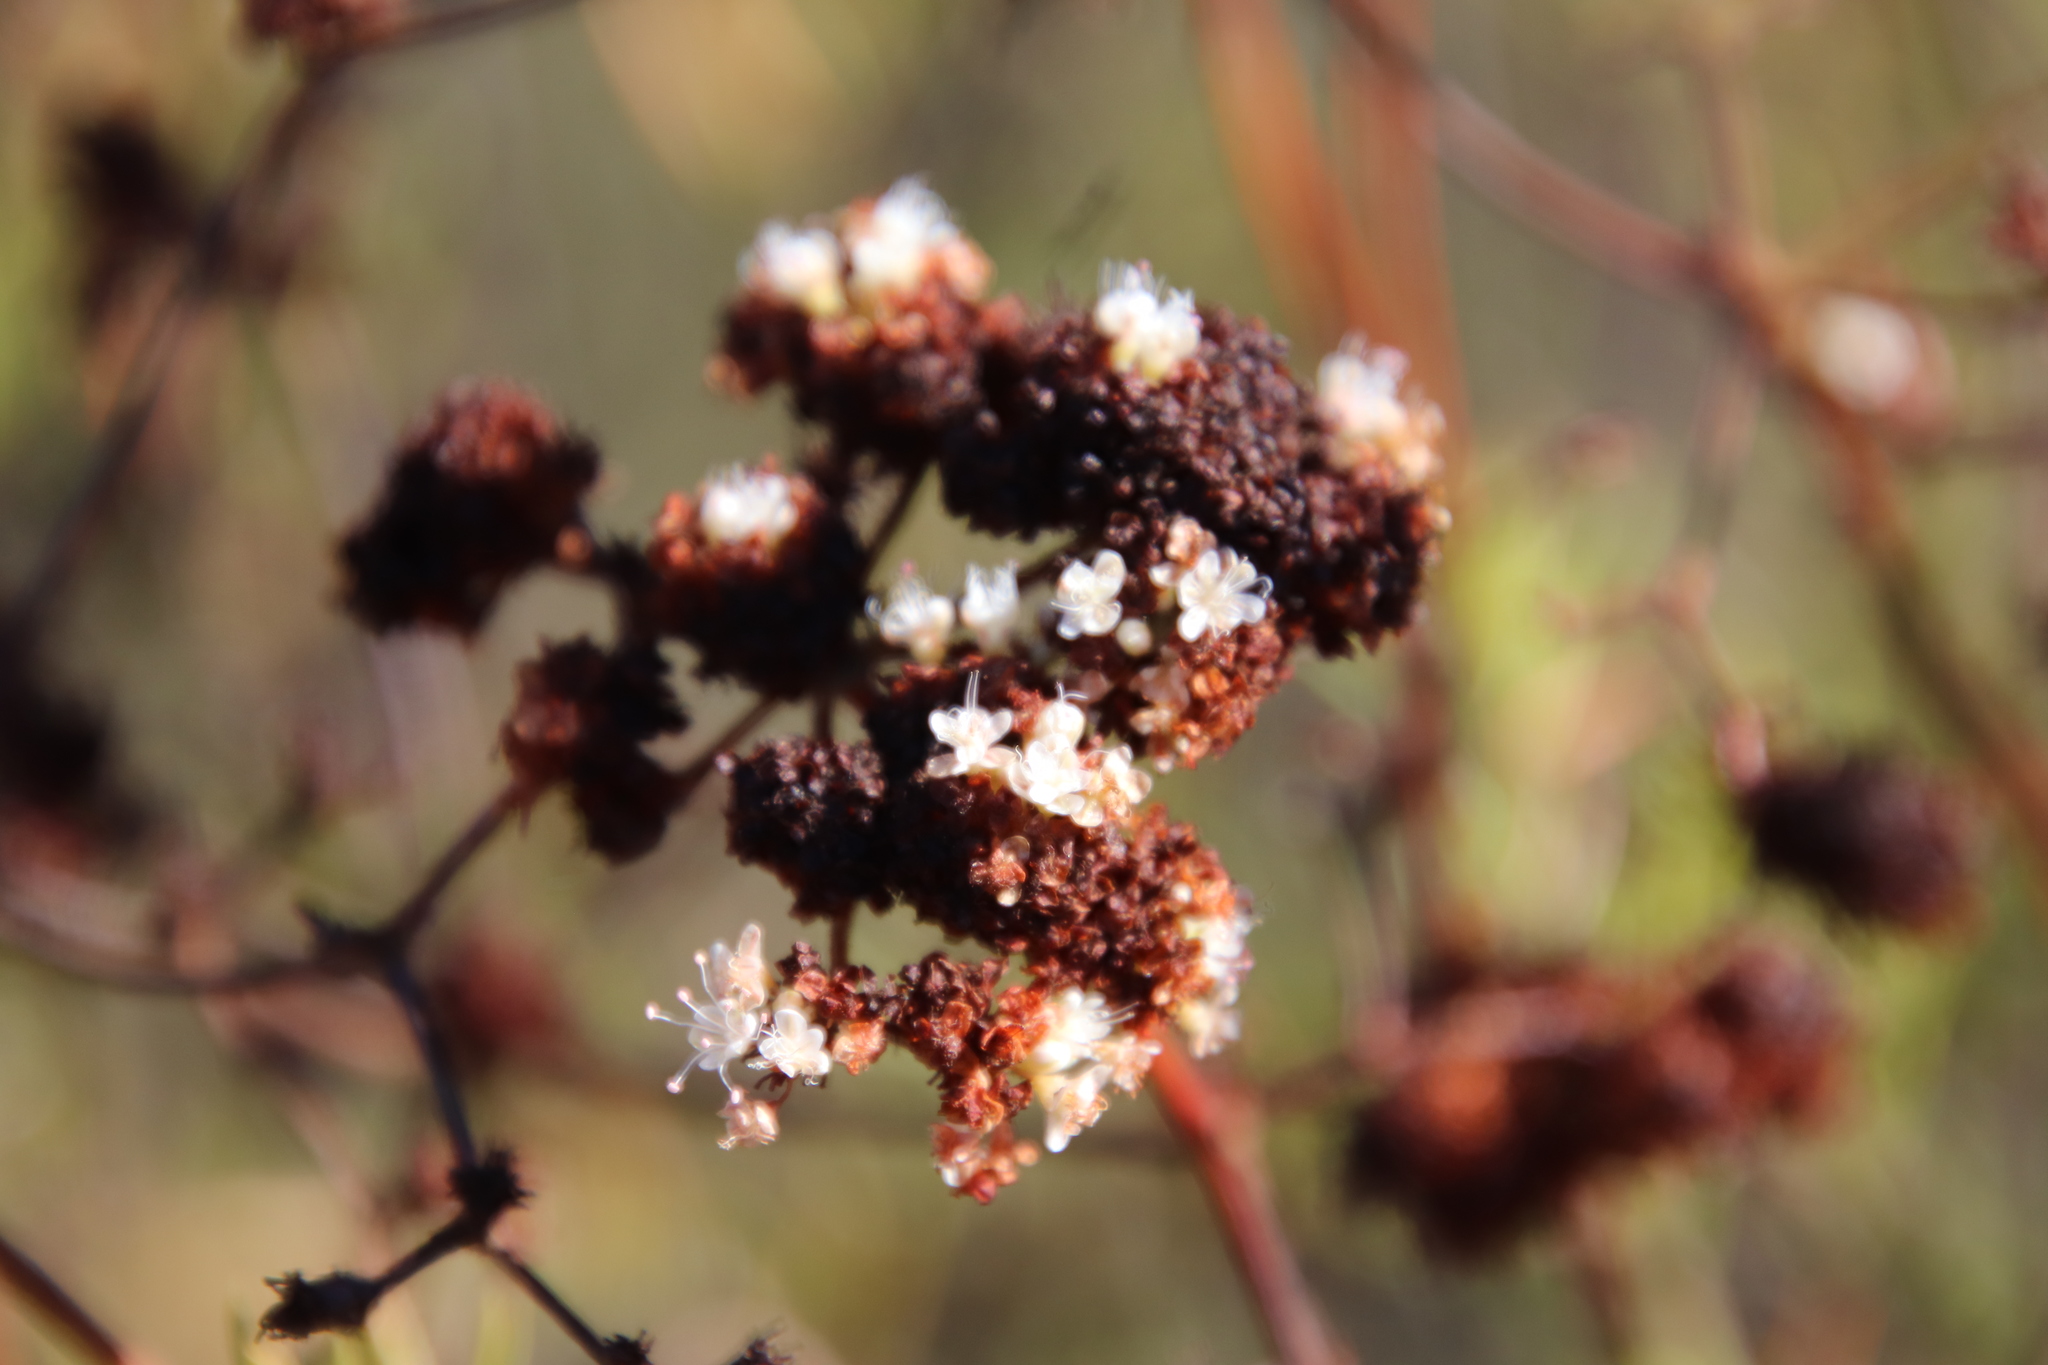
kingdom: Plantae
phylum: Tracheophyta
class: Magnoliopsida
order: Caryophyllales
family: Polygonaceae
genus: Eriogonum
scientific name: Eriogonum fasciculatum
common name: California wild buckwheat
